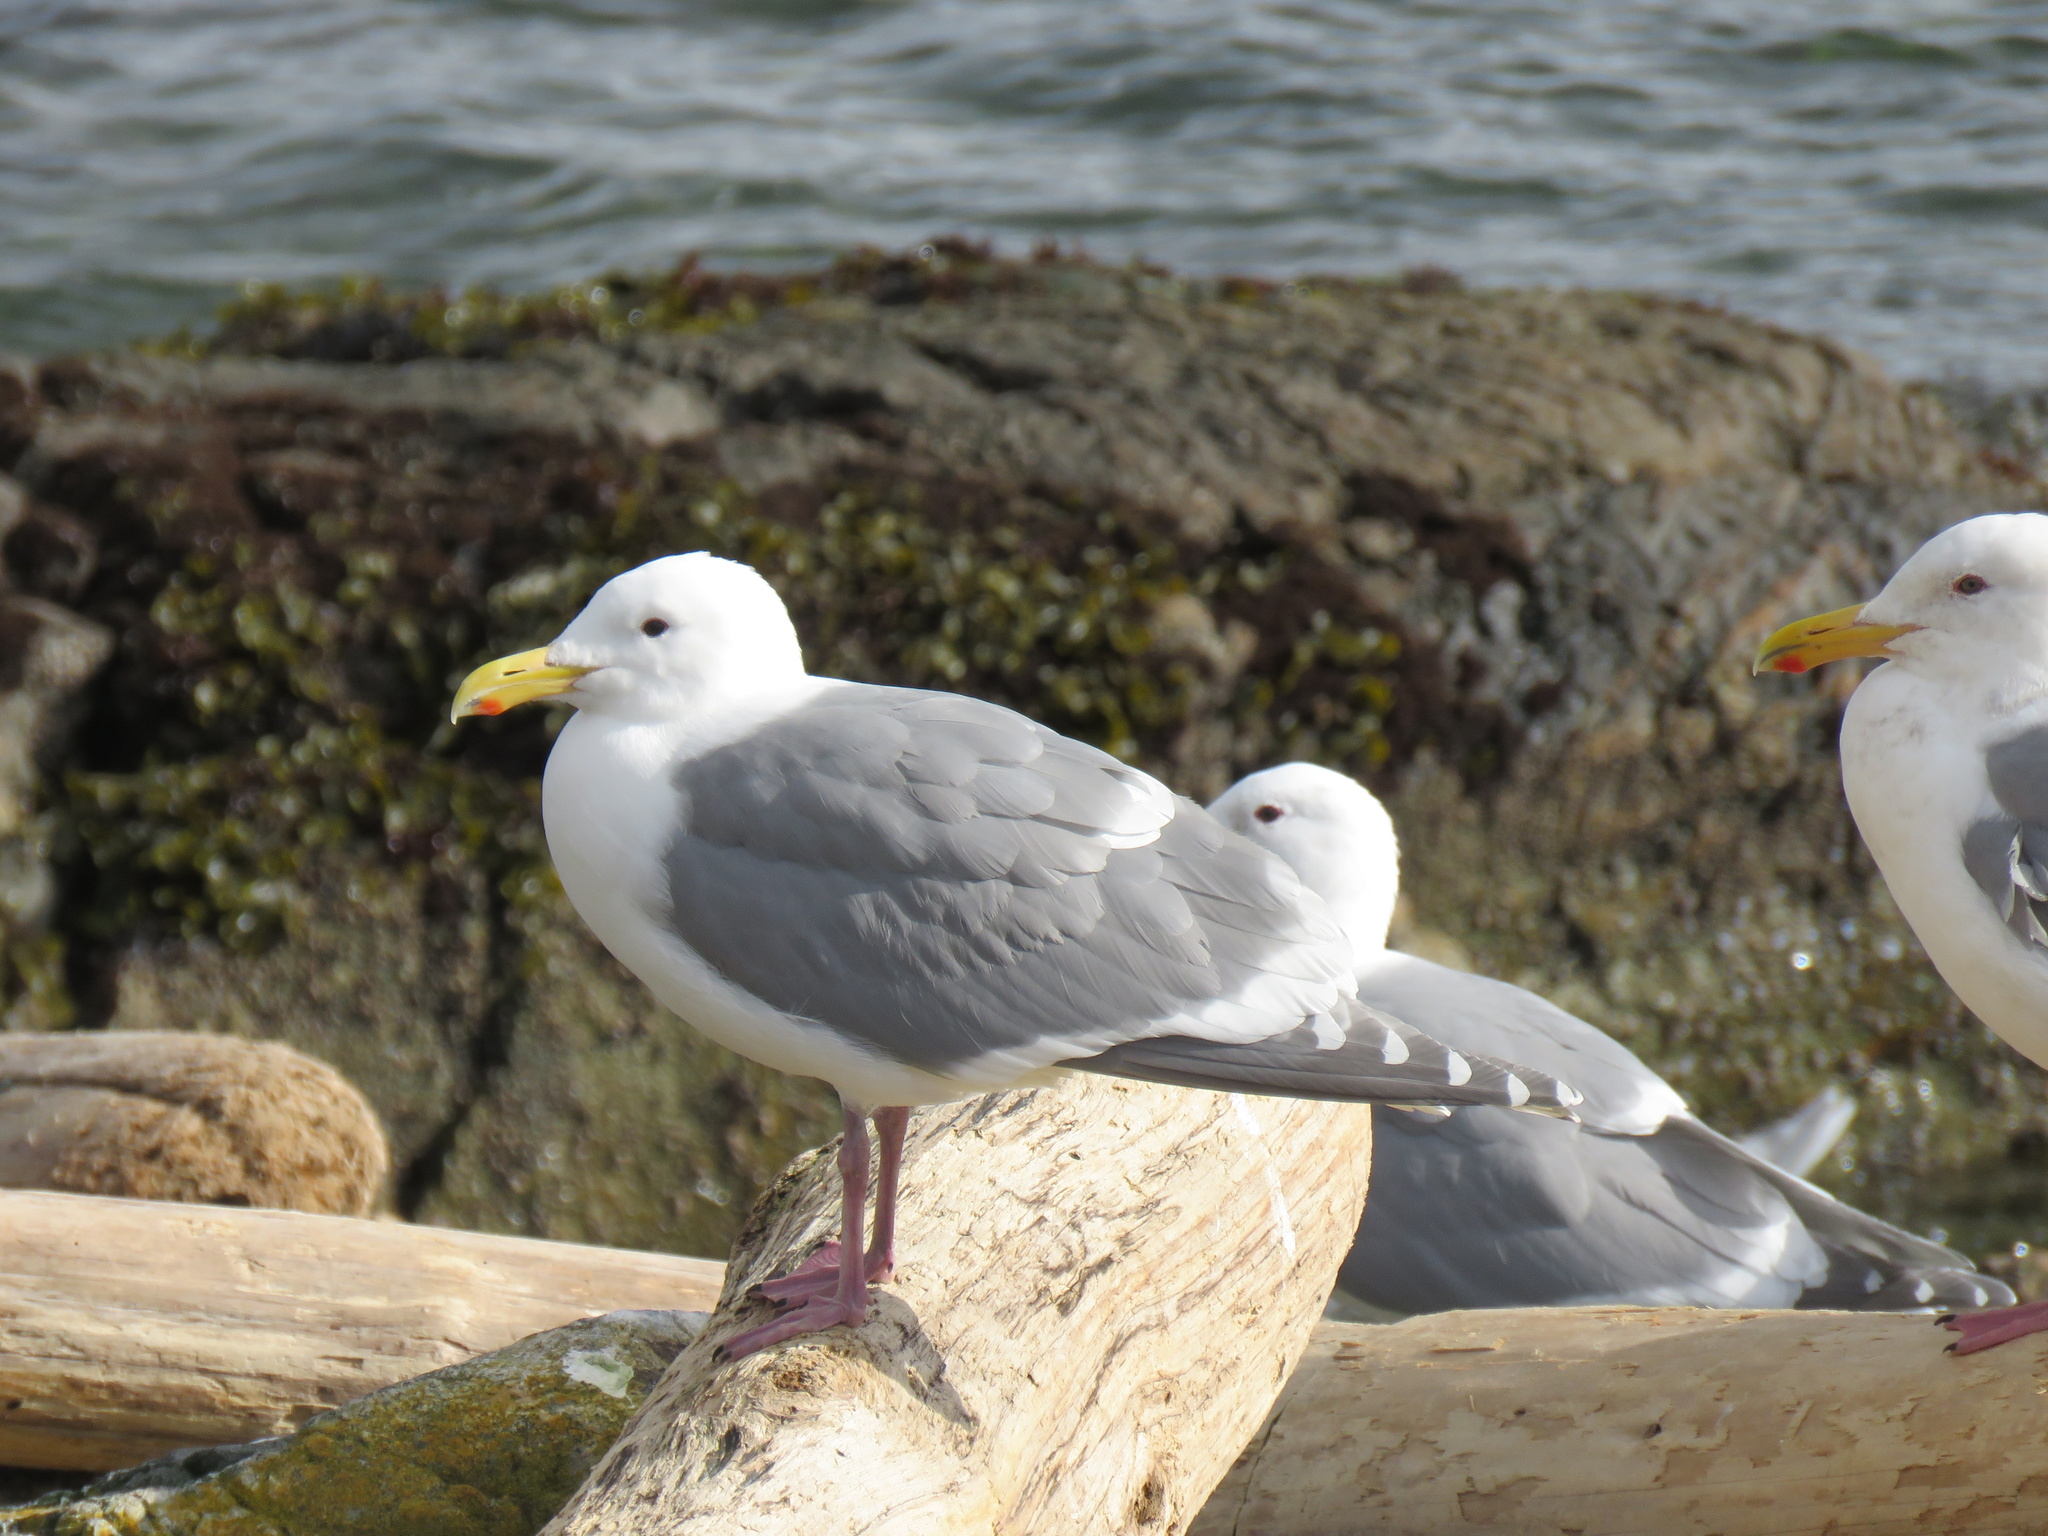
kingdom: Animalia
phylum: Chordata
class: Aves
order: Charadriiformes
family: Laridae
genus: Larus
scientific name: Larus glaucescens
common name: Glaucous-winged gull
